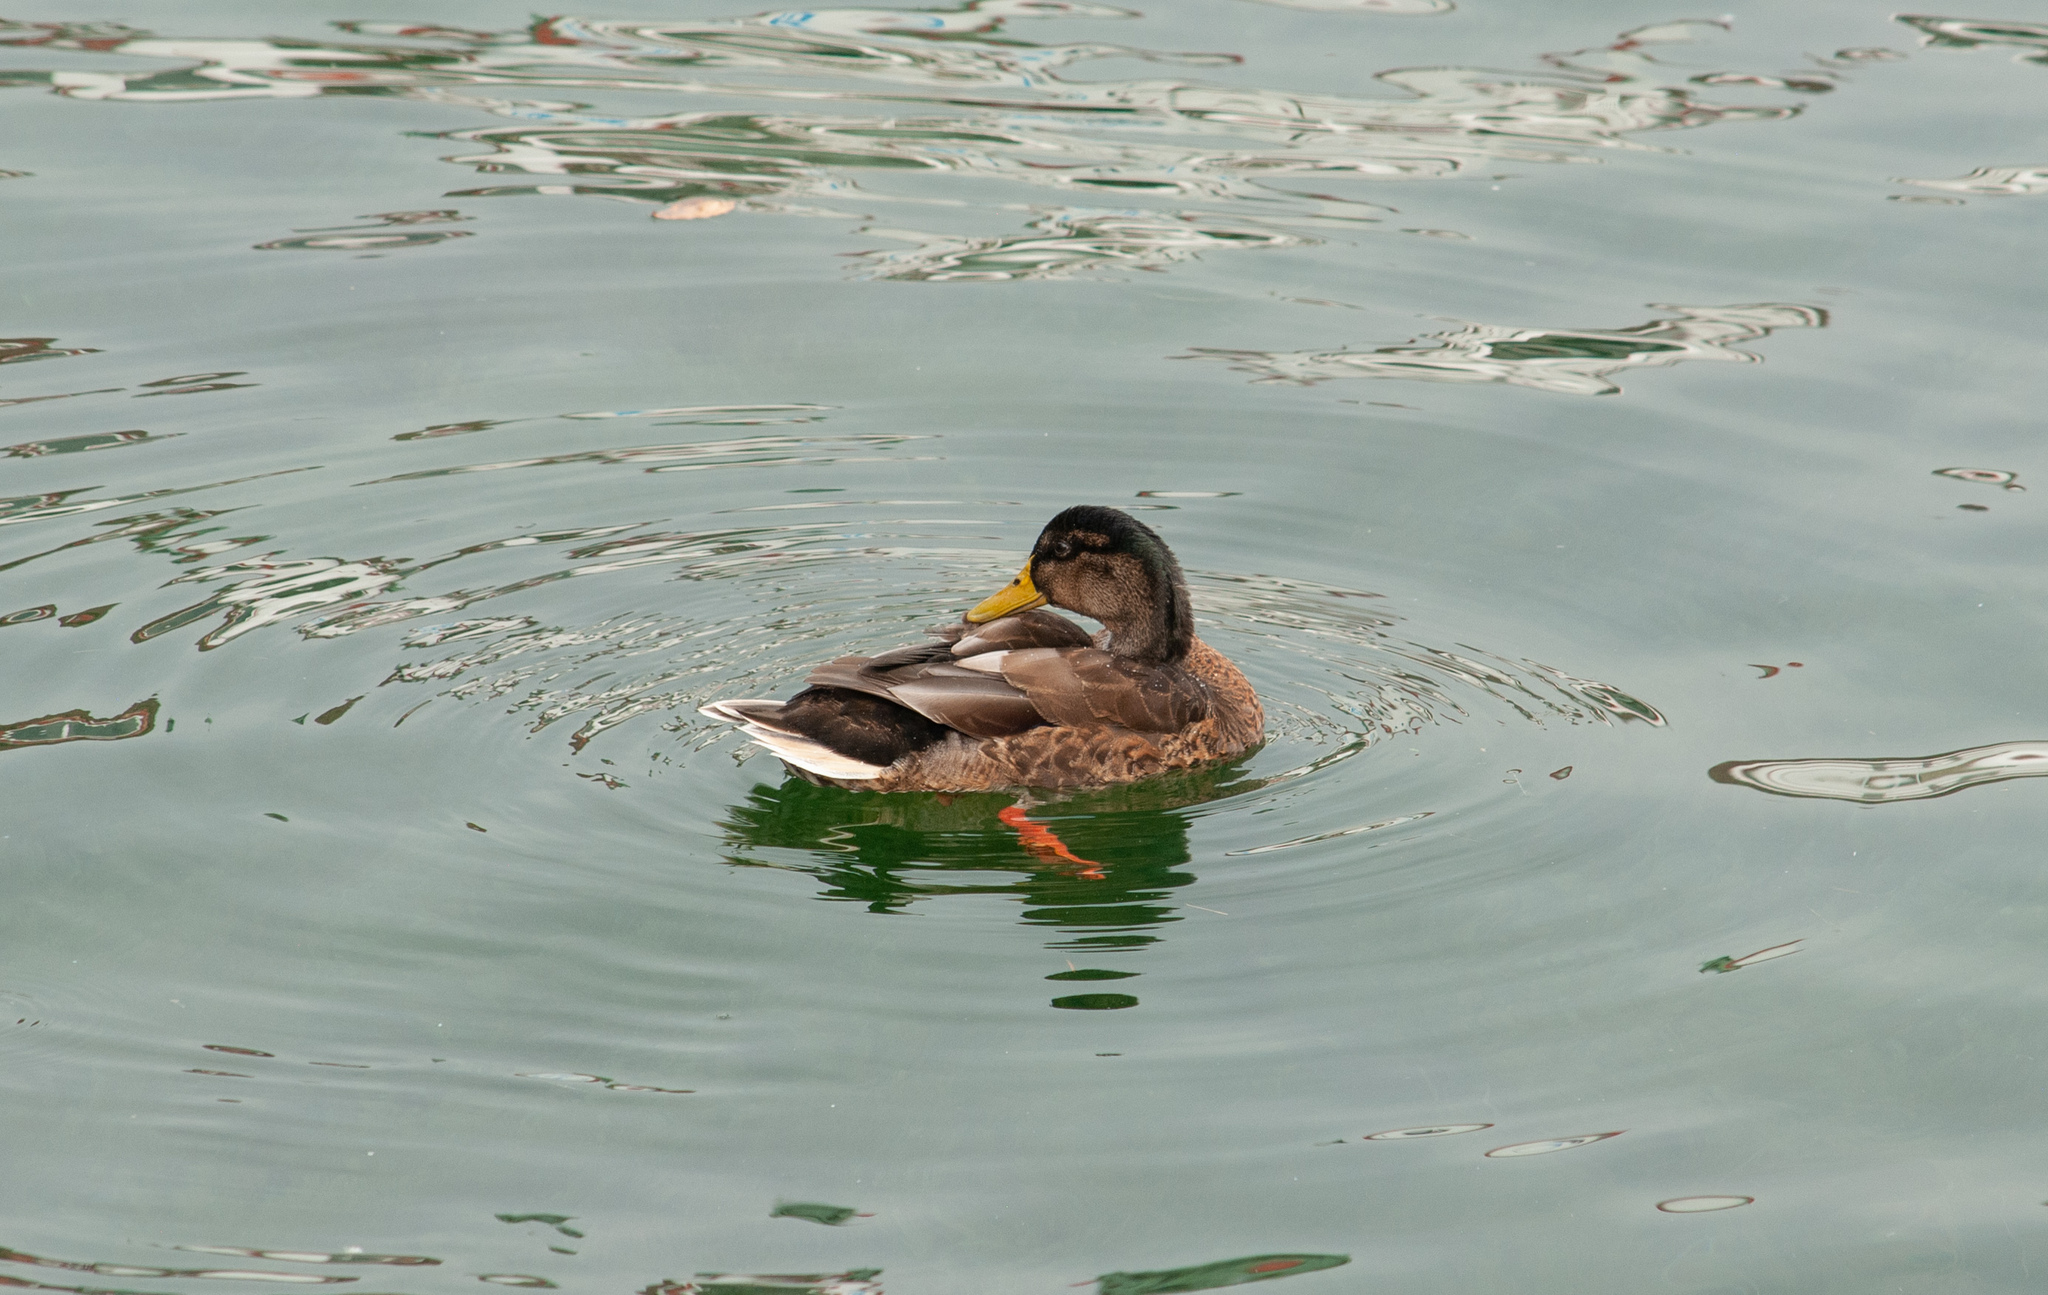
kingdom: Animalia
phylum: Chordata
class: Aves
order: Anseriformes
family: Anatidae
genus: Anas
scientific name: Anas platyrhynchos
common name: Mallard
